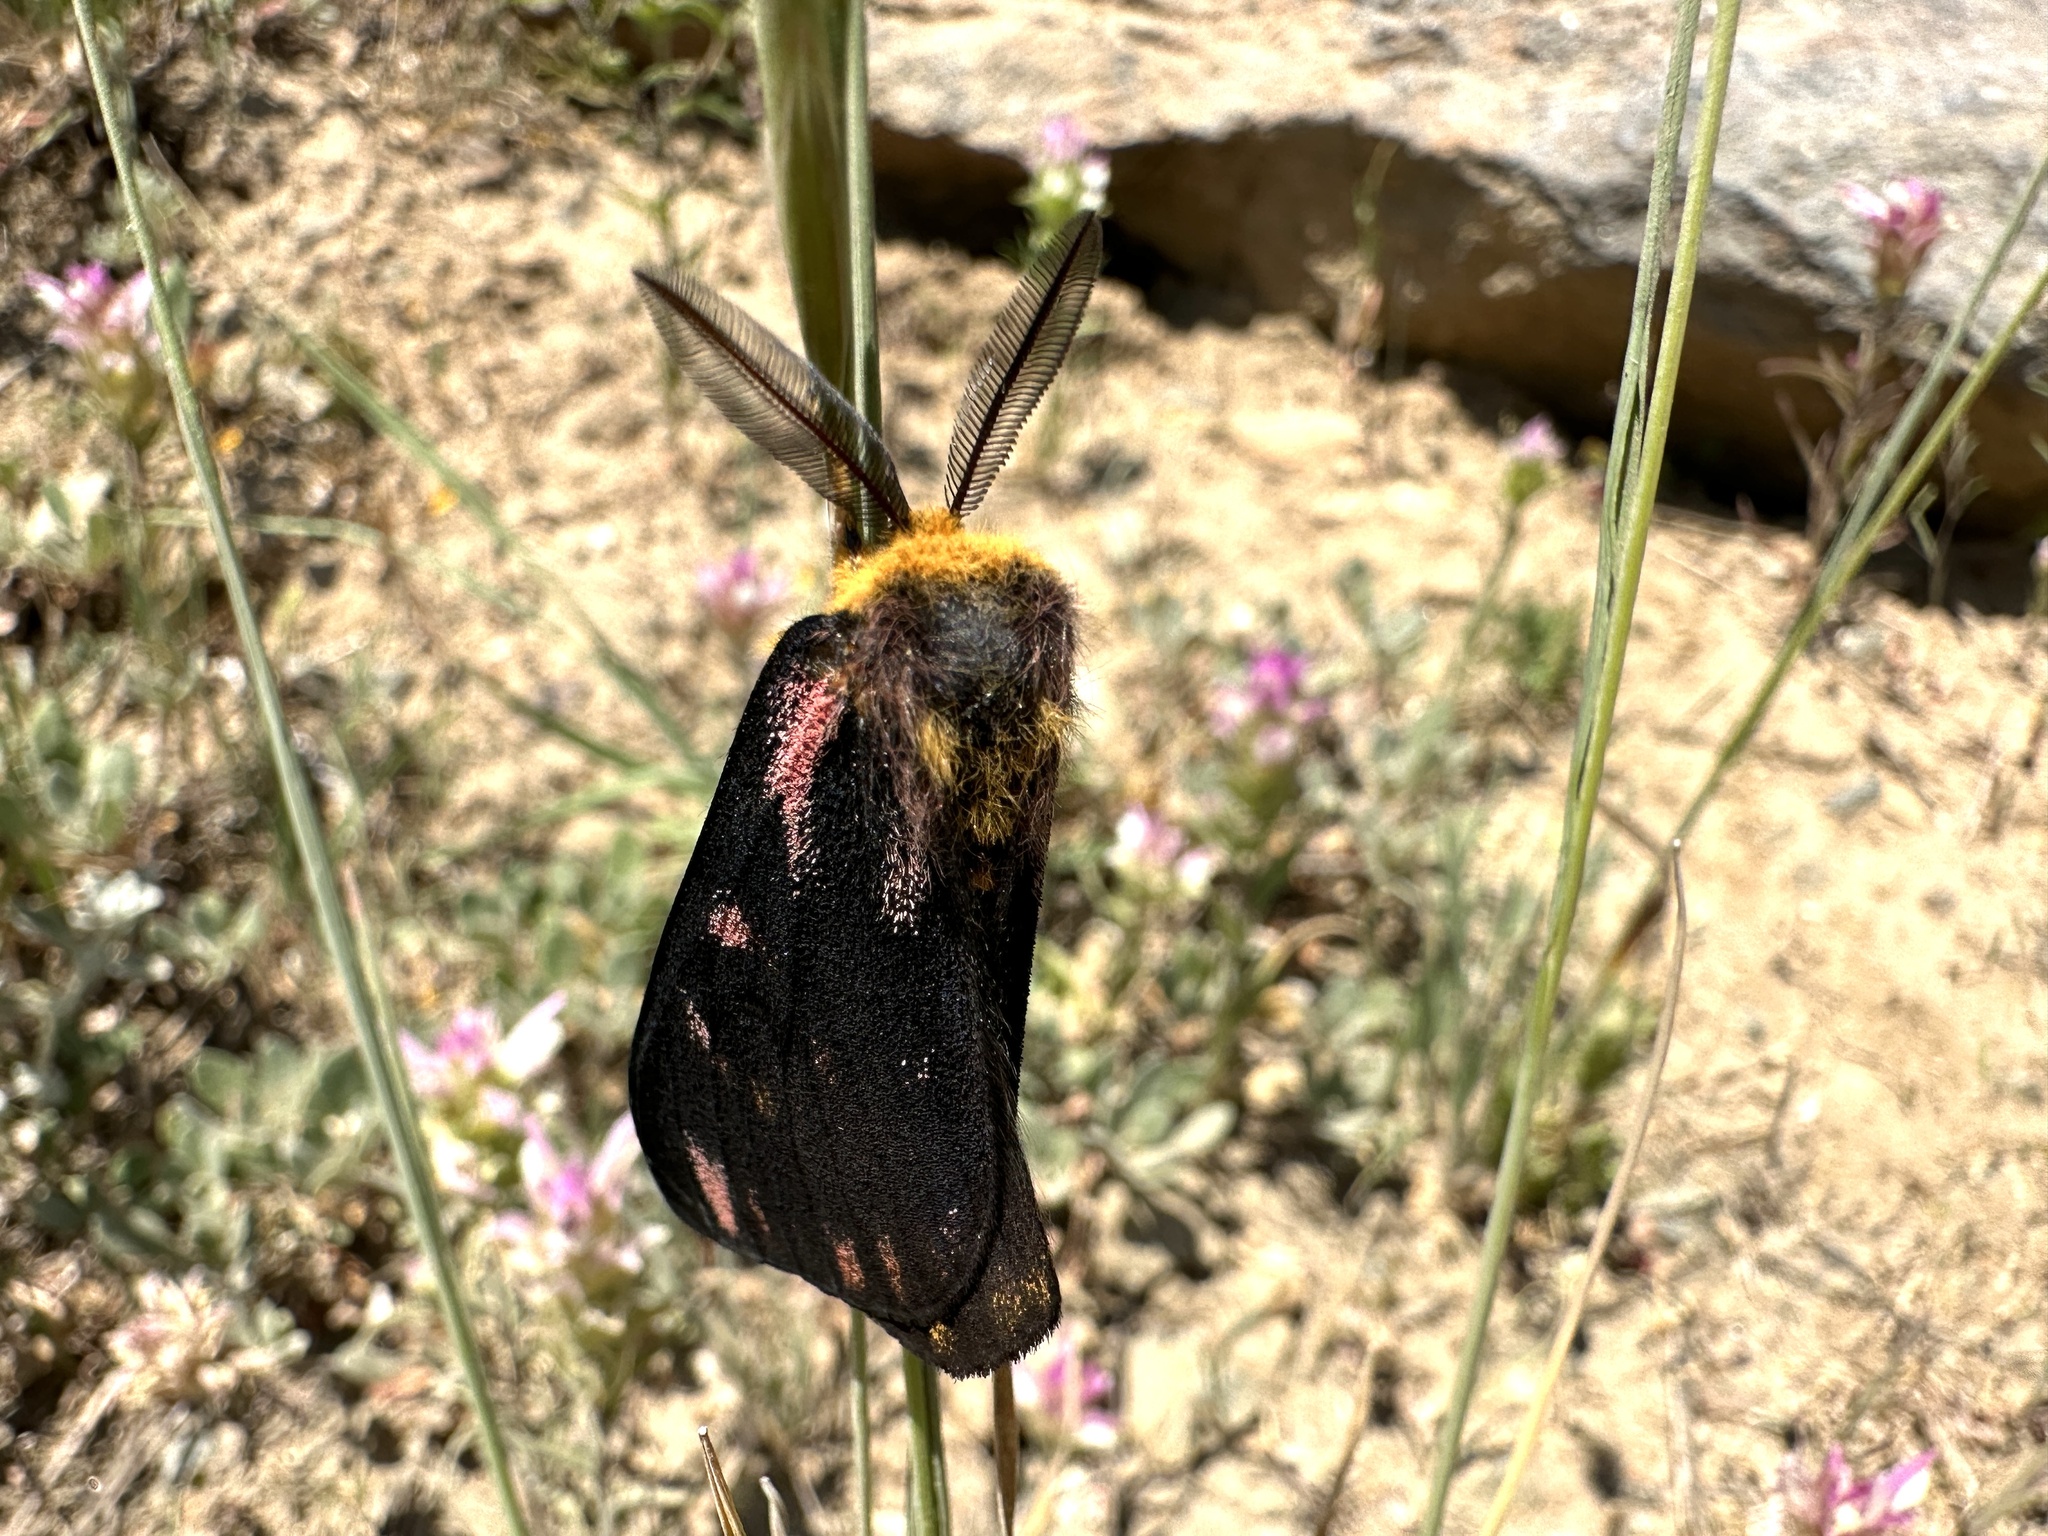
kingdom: Animalia
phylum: Arthropoda
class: Insecta
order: Lepidoptera
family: Saturniidae
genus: Hemileuca
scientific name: Hemileuca eglanterina
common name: Western sheepmoth
